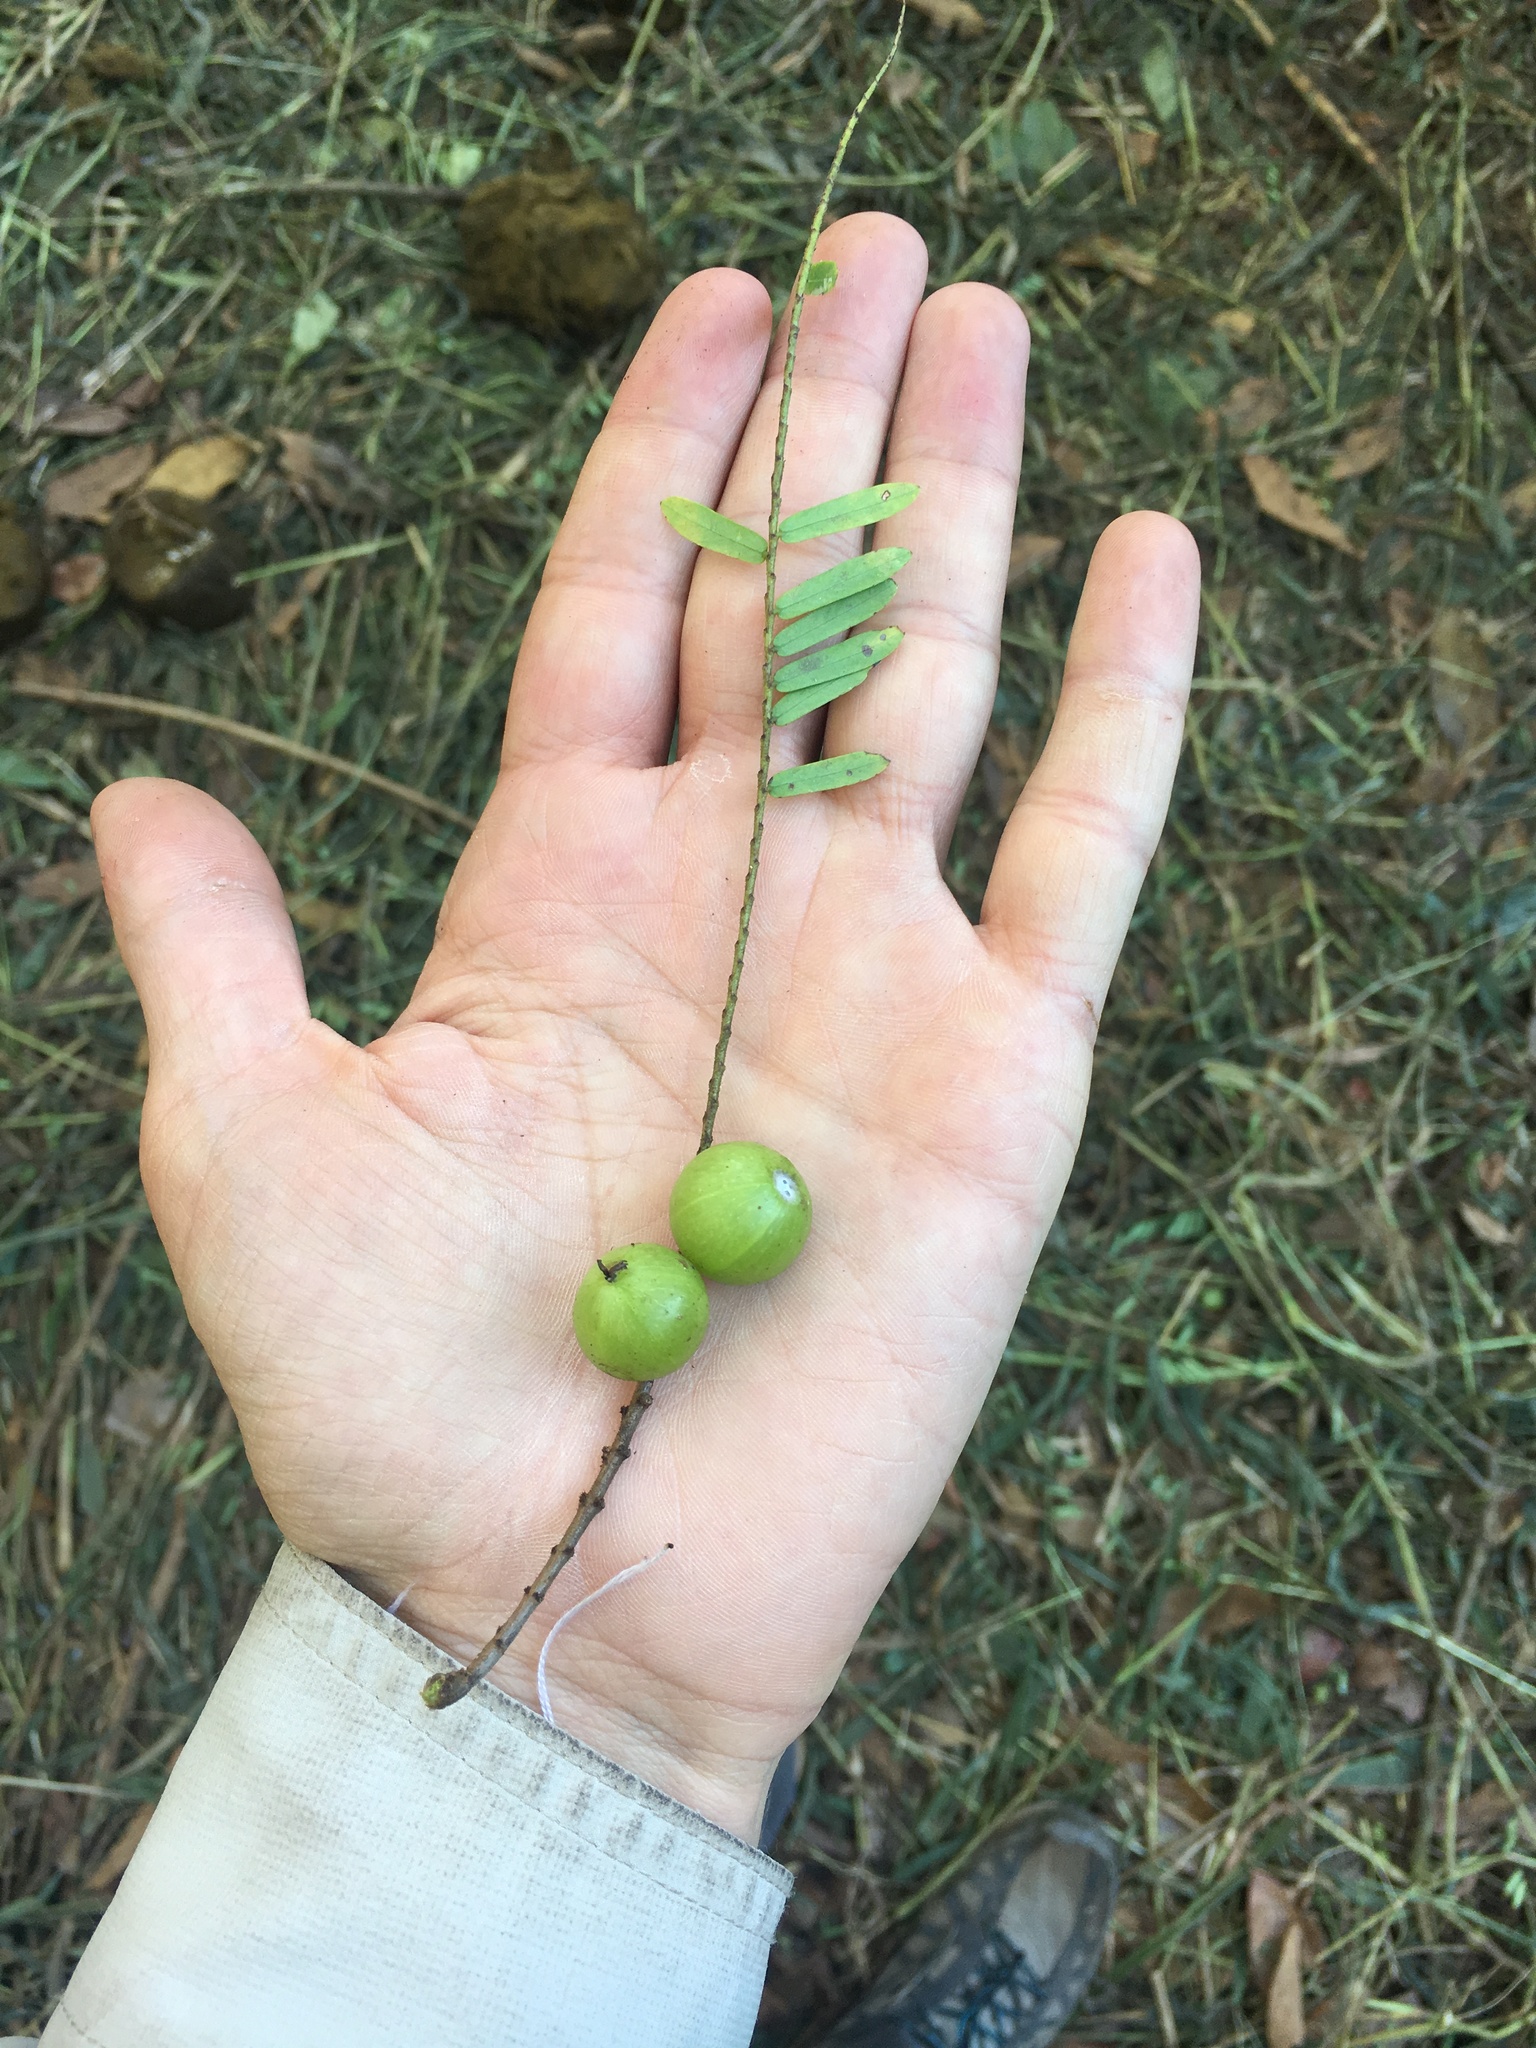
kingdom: Plantae
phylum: Tracheophyta
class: Magnoliopsida
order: Malpighiales
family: Phyllanthaceae
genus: Phyllanthus
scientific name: Phyllanthus emblica
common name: Indian gooseberry
